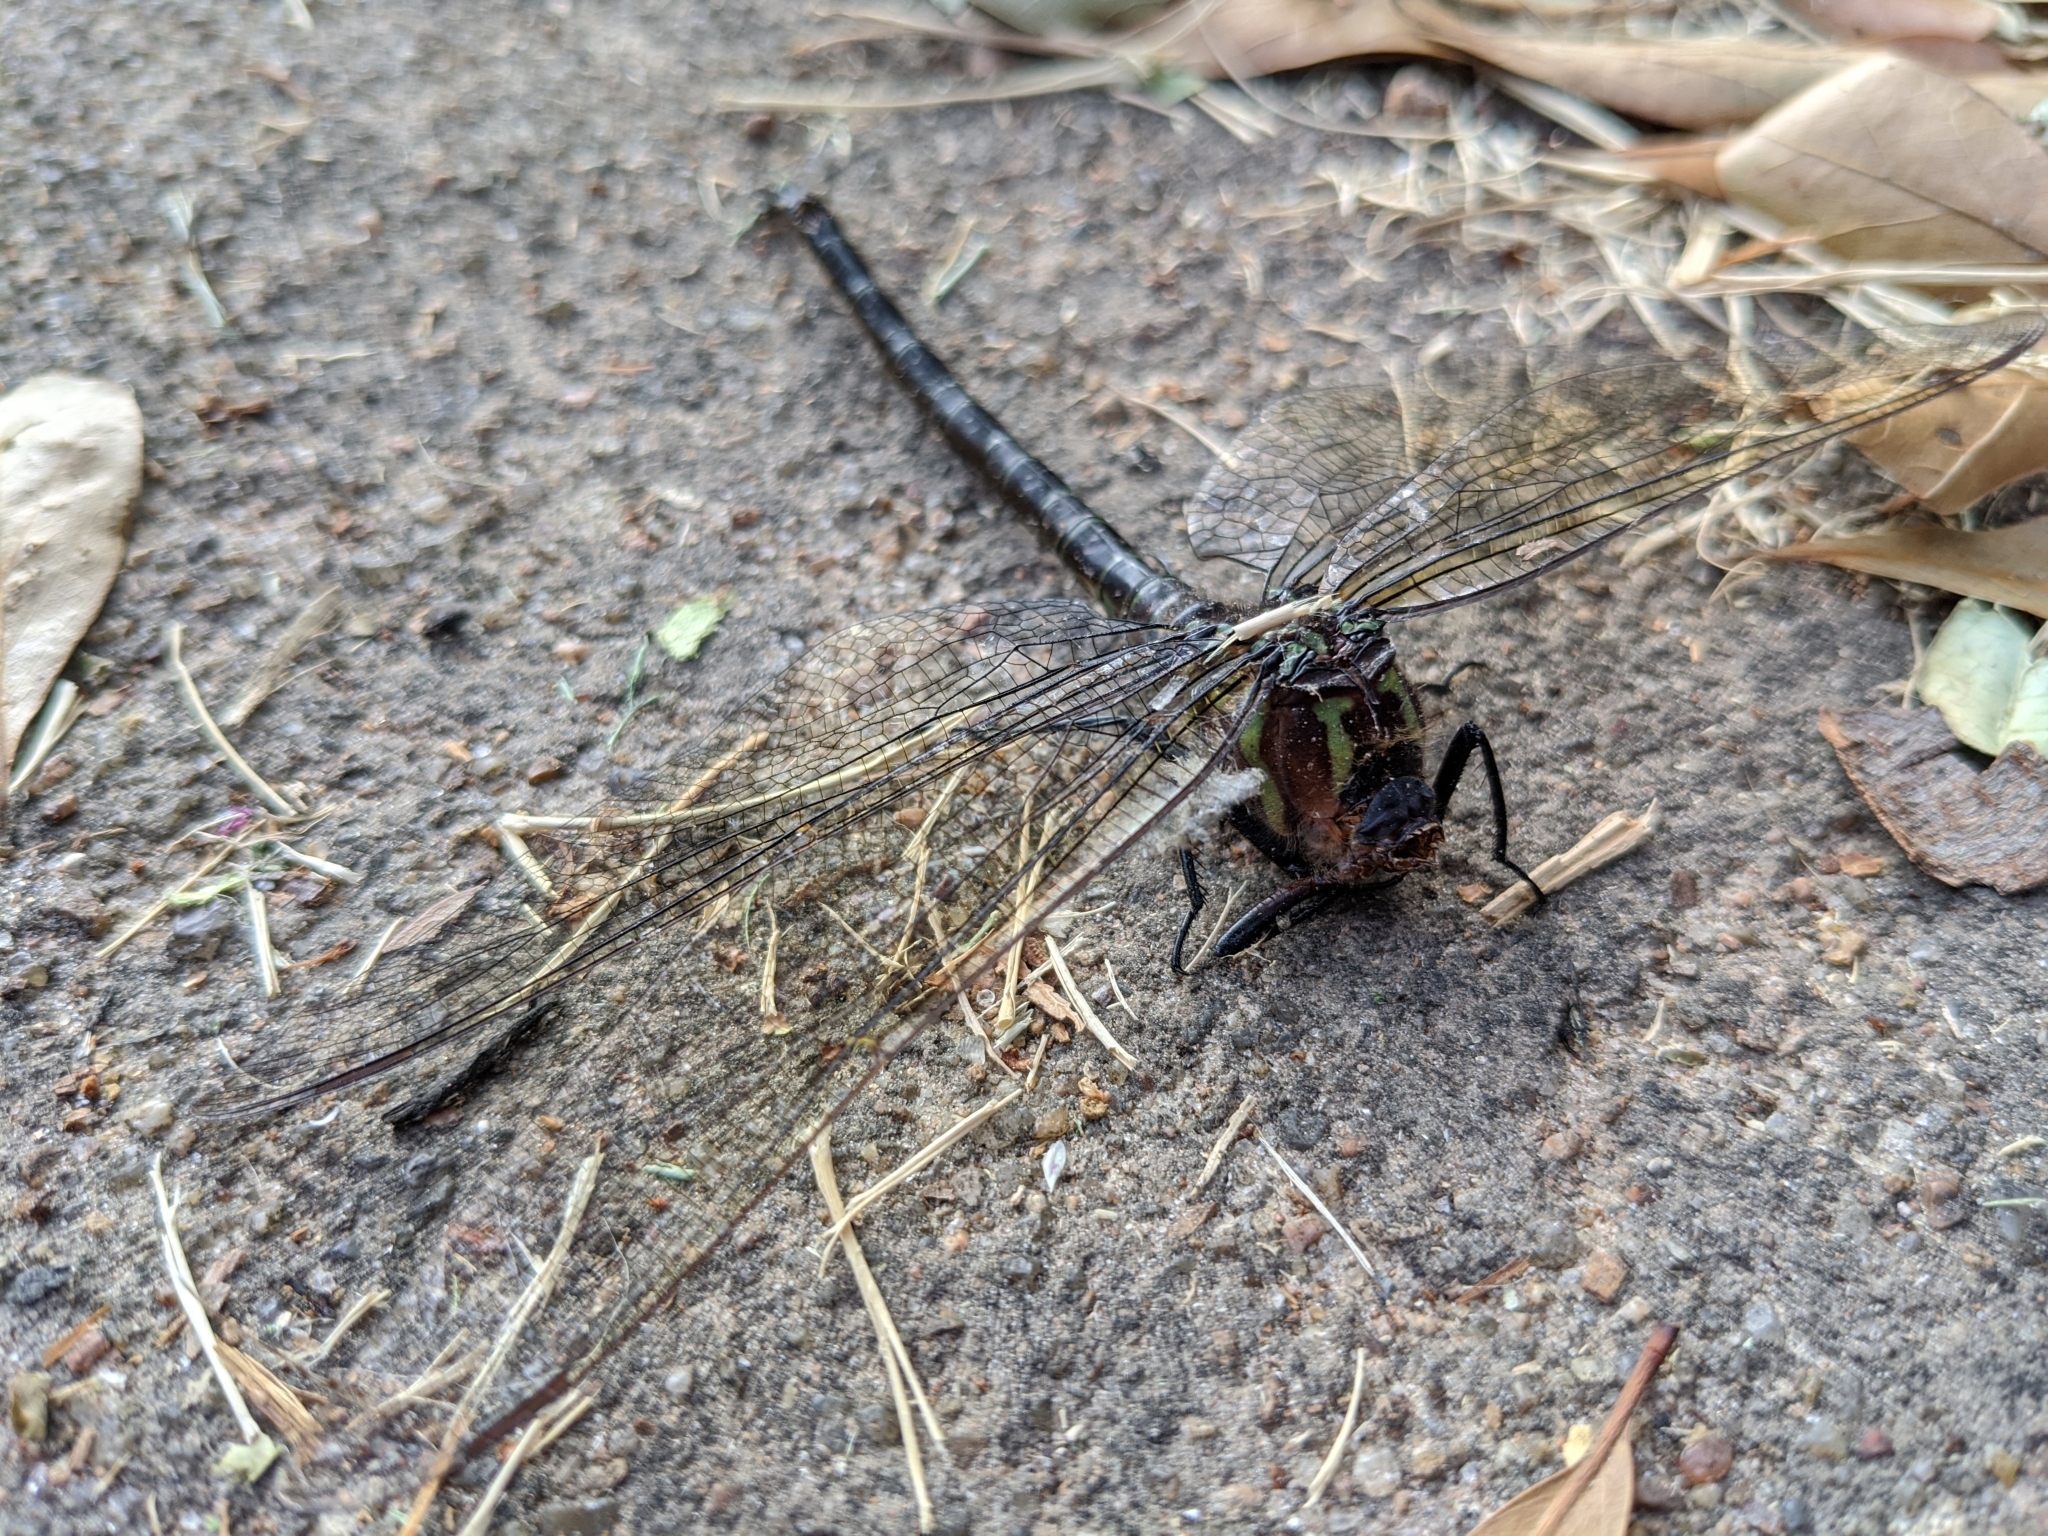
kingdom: Animalia
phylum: Arthropoda
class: Insecta
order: Odonata
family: Aeshnidae
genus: Epiaeschna
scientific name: Epiaeschna heros
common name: Swamp darner
